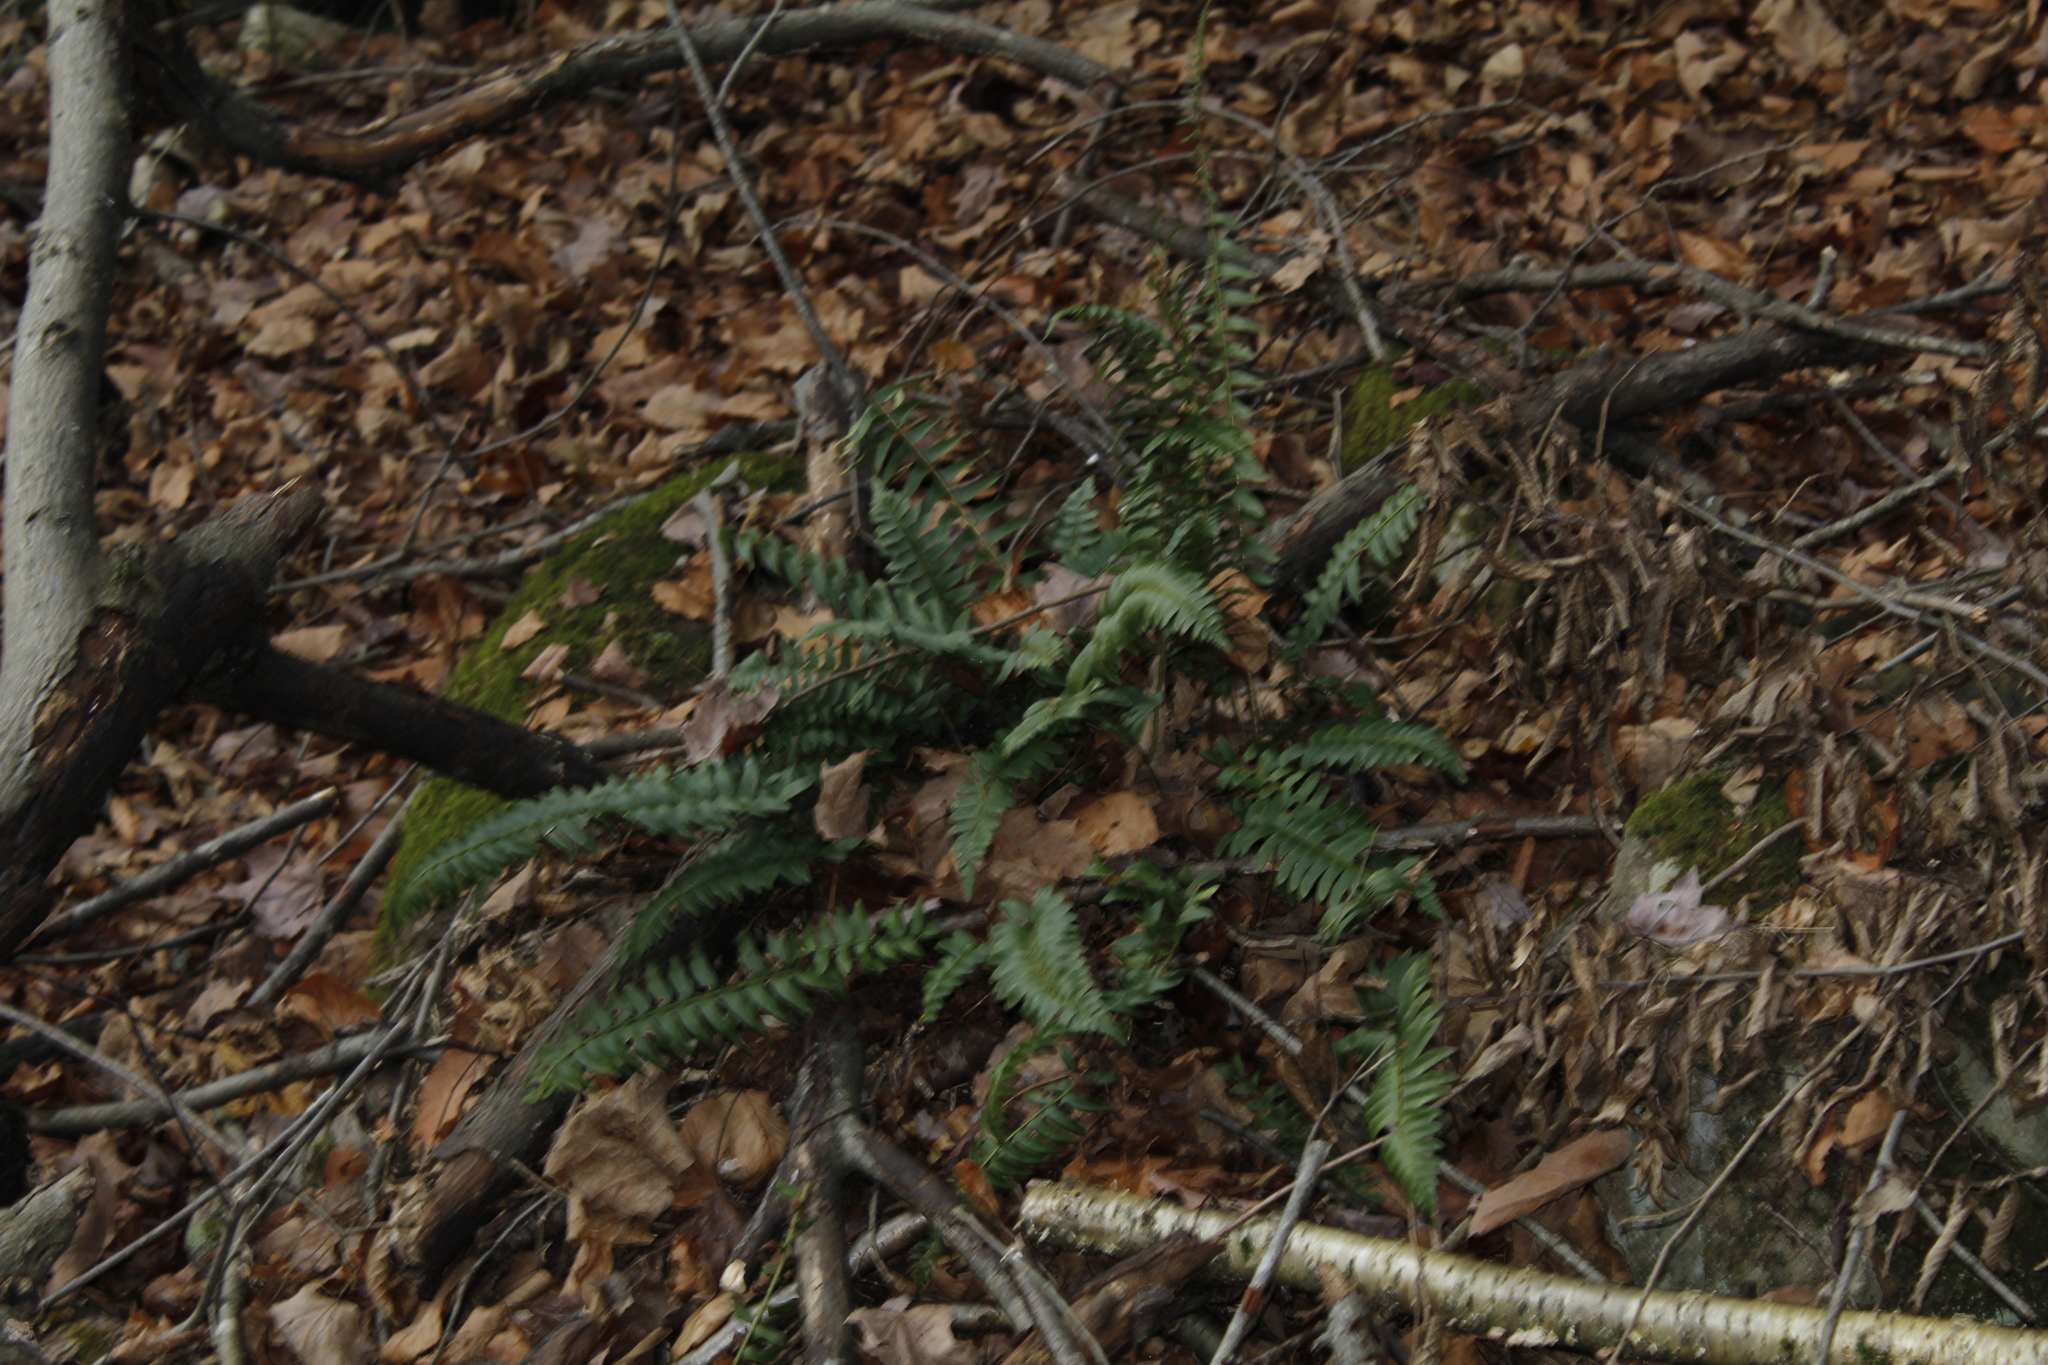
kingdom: Plantae
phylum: Tracheophyta
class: Polypodiopsida
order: Polypodiales
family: Dryopteridaceae
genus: Polystichum
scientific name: Polystichum acrostichoides
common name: Christmas fern
